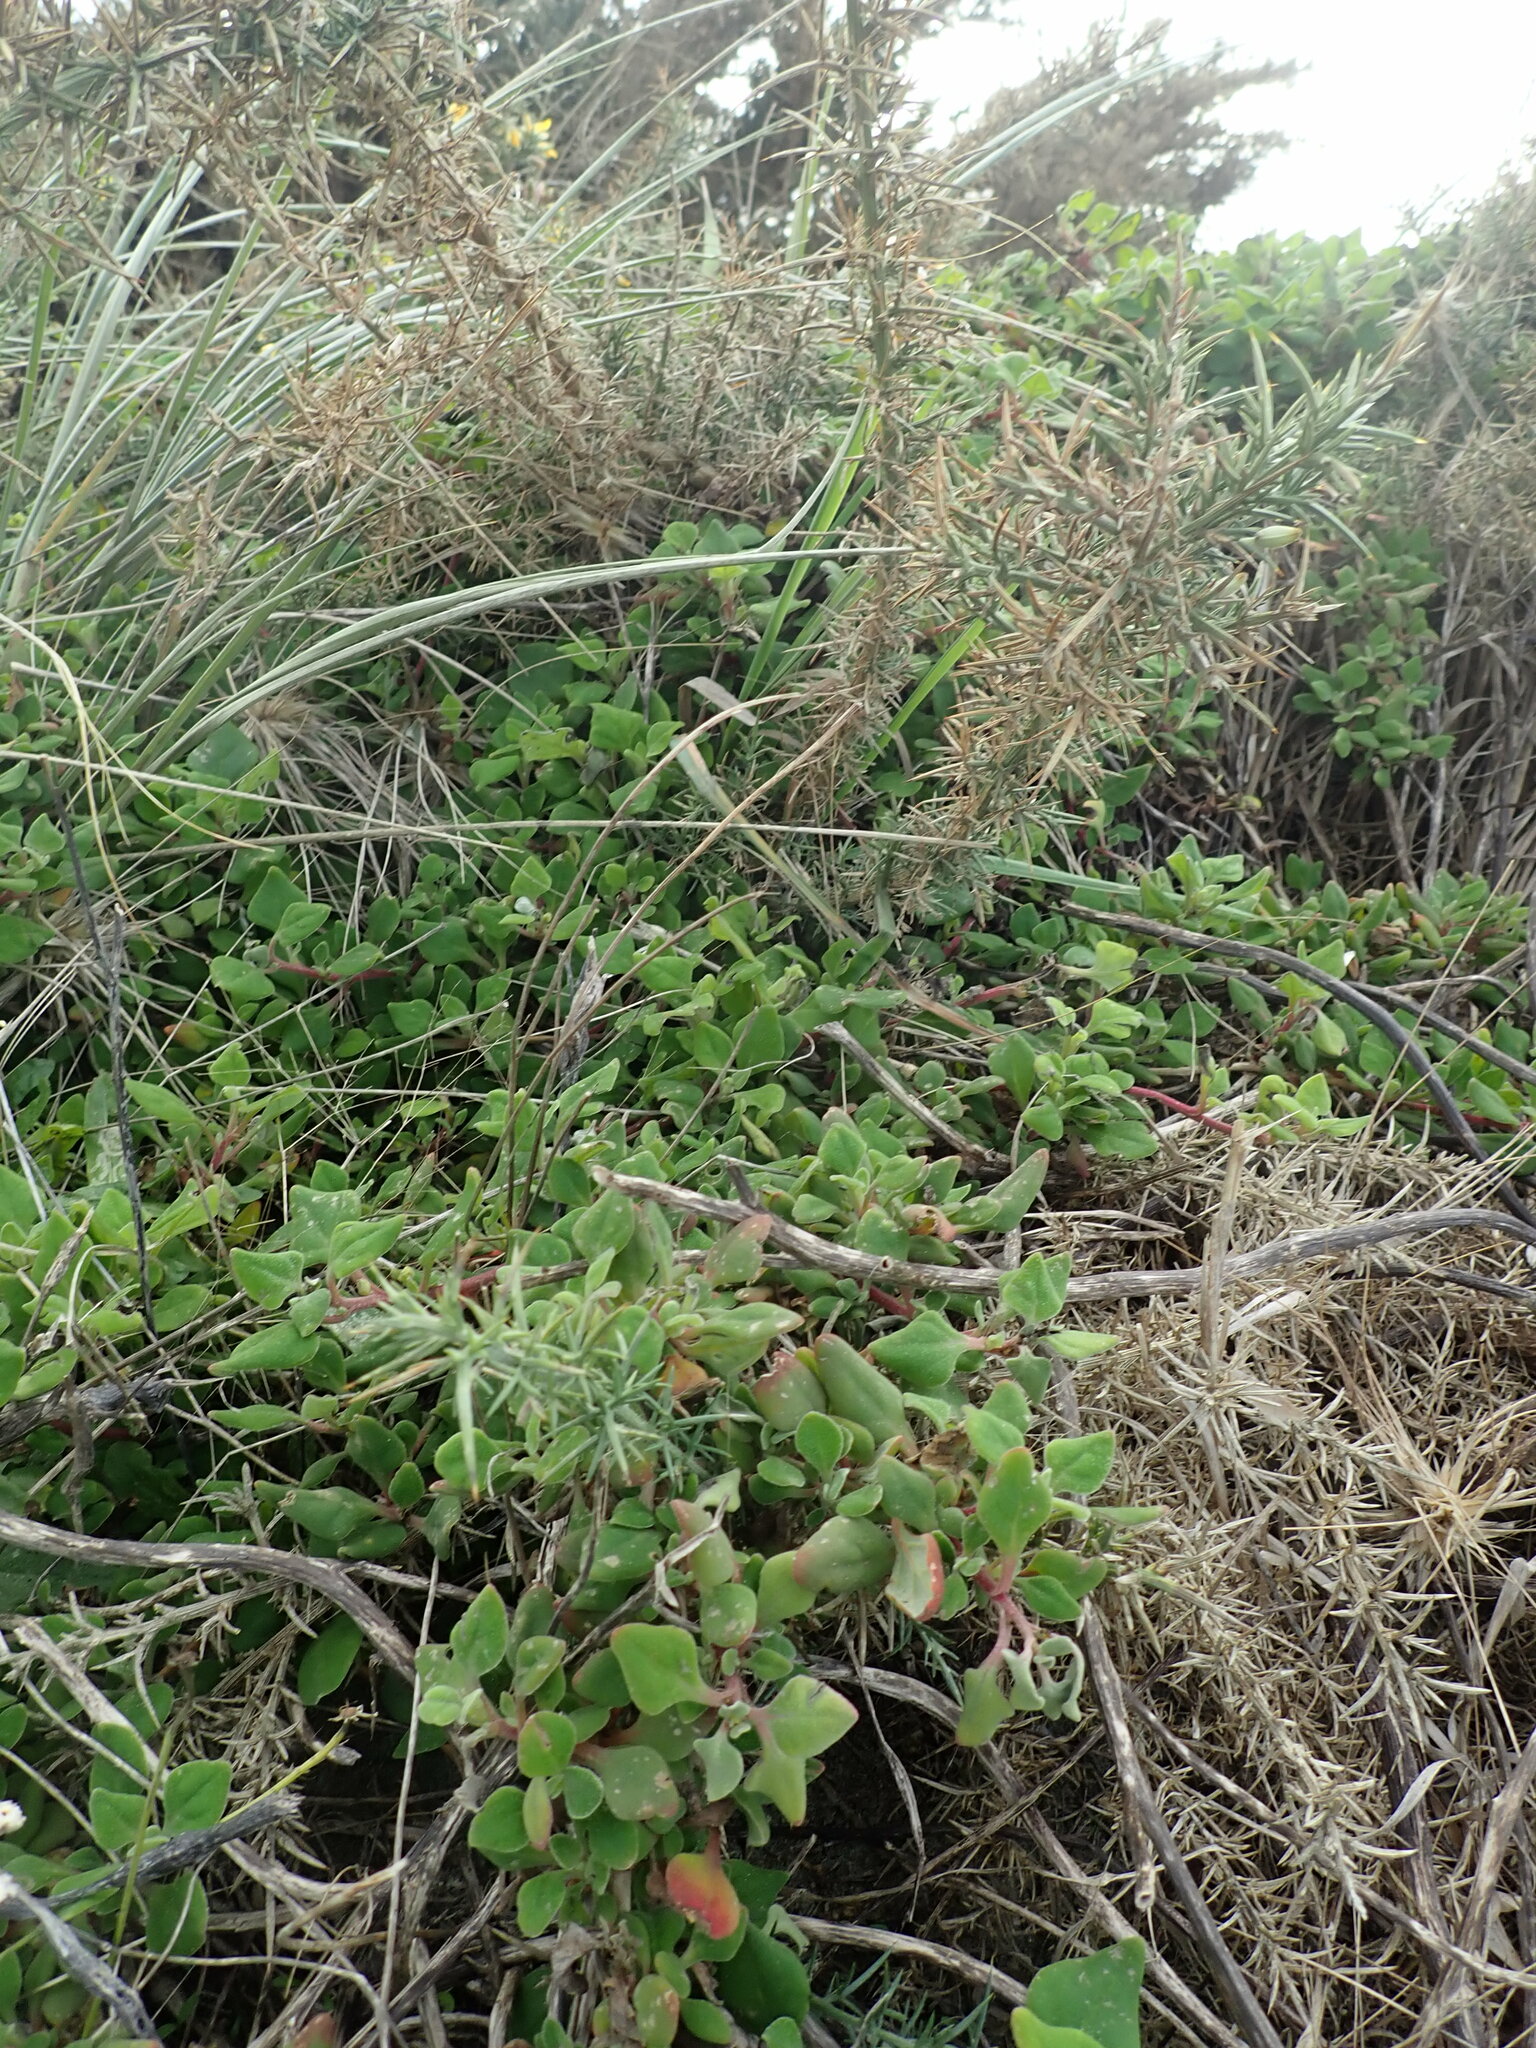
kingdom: Plantae
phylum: Tracheophyta
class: Magnoliopsida
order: Caryophyllales
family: Aizoaceae
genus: Tetragonia
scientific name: Tetragonia implexicoma
